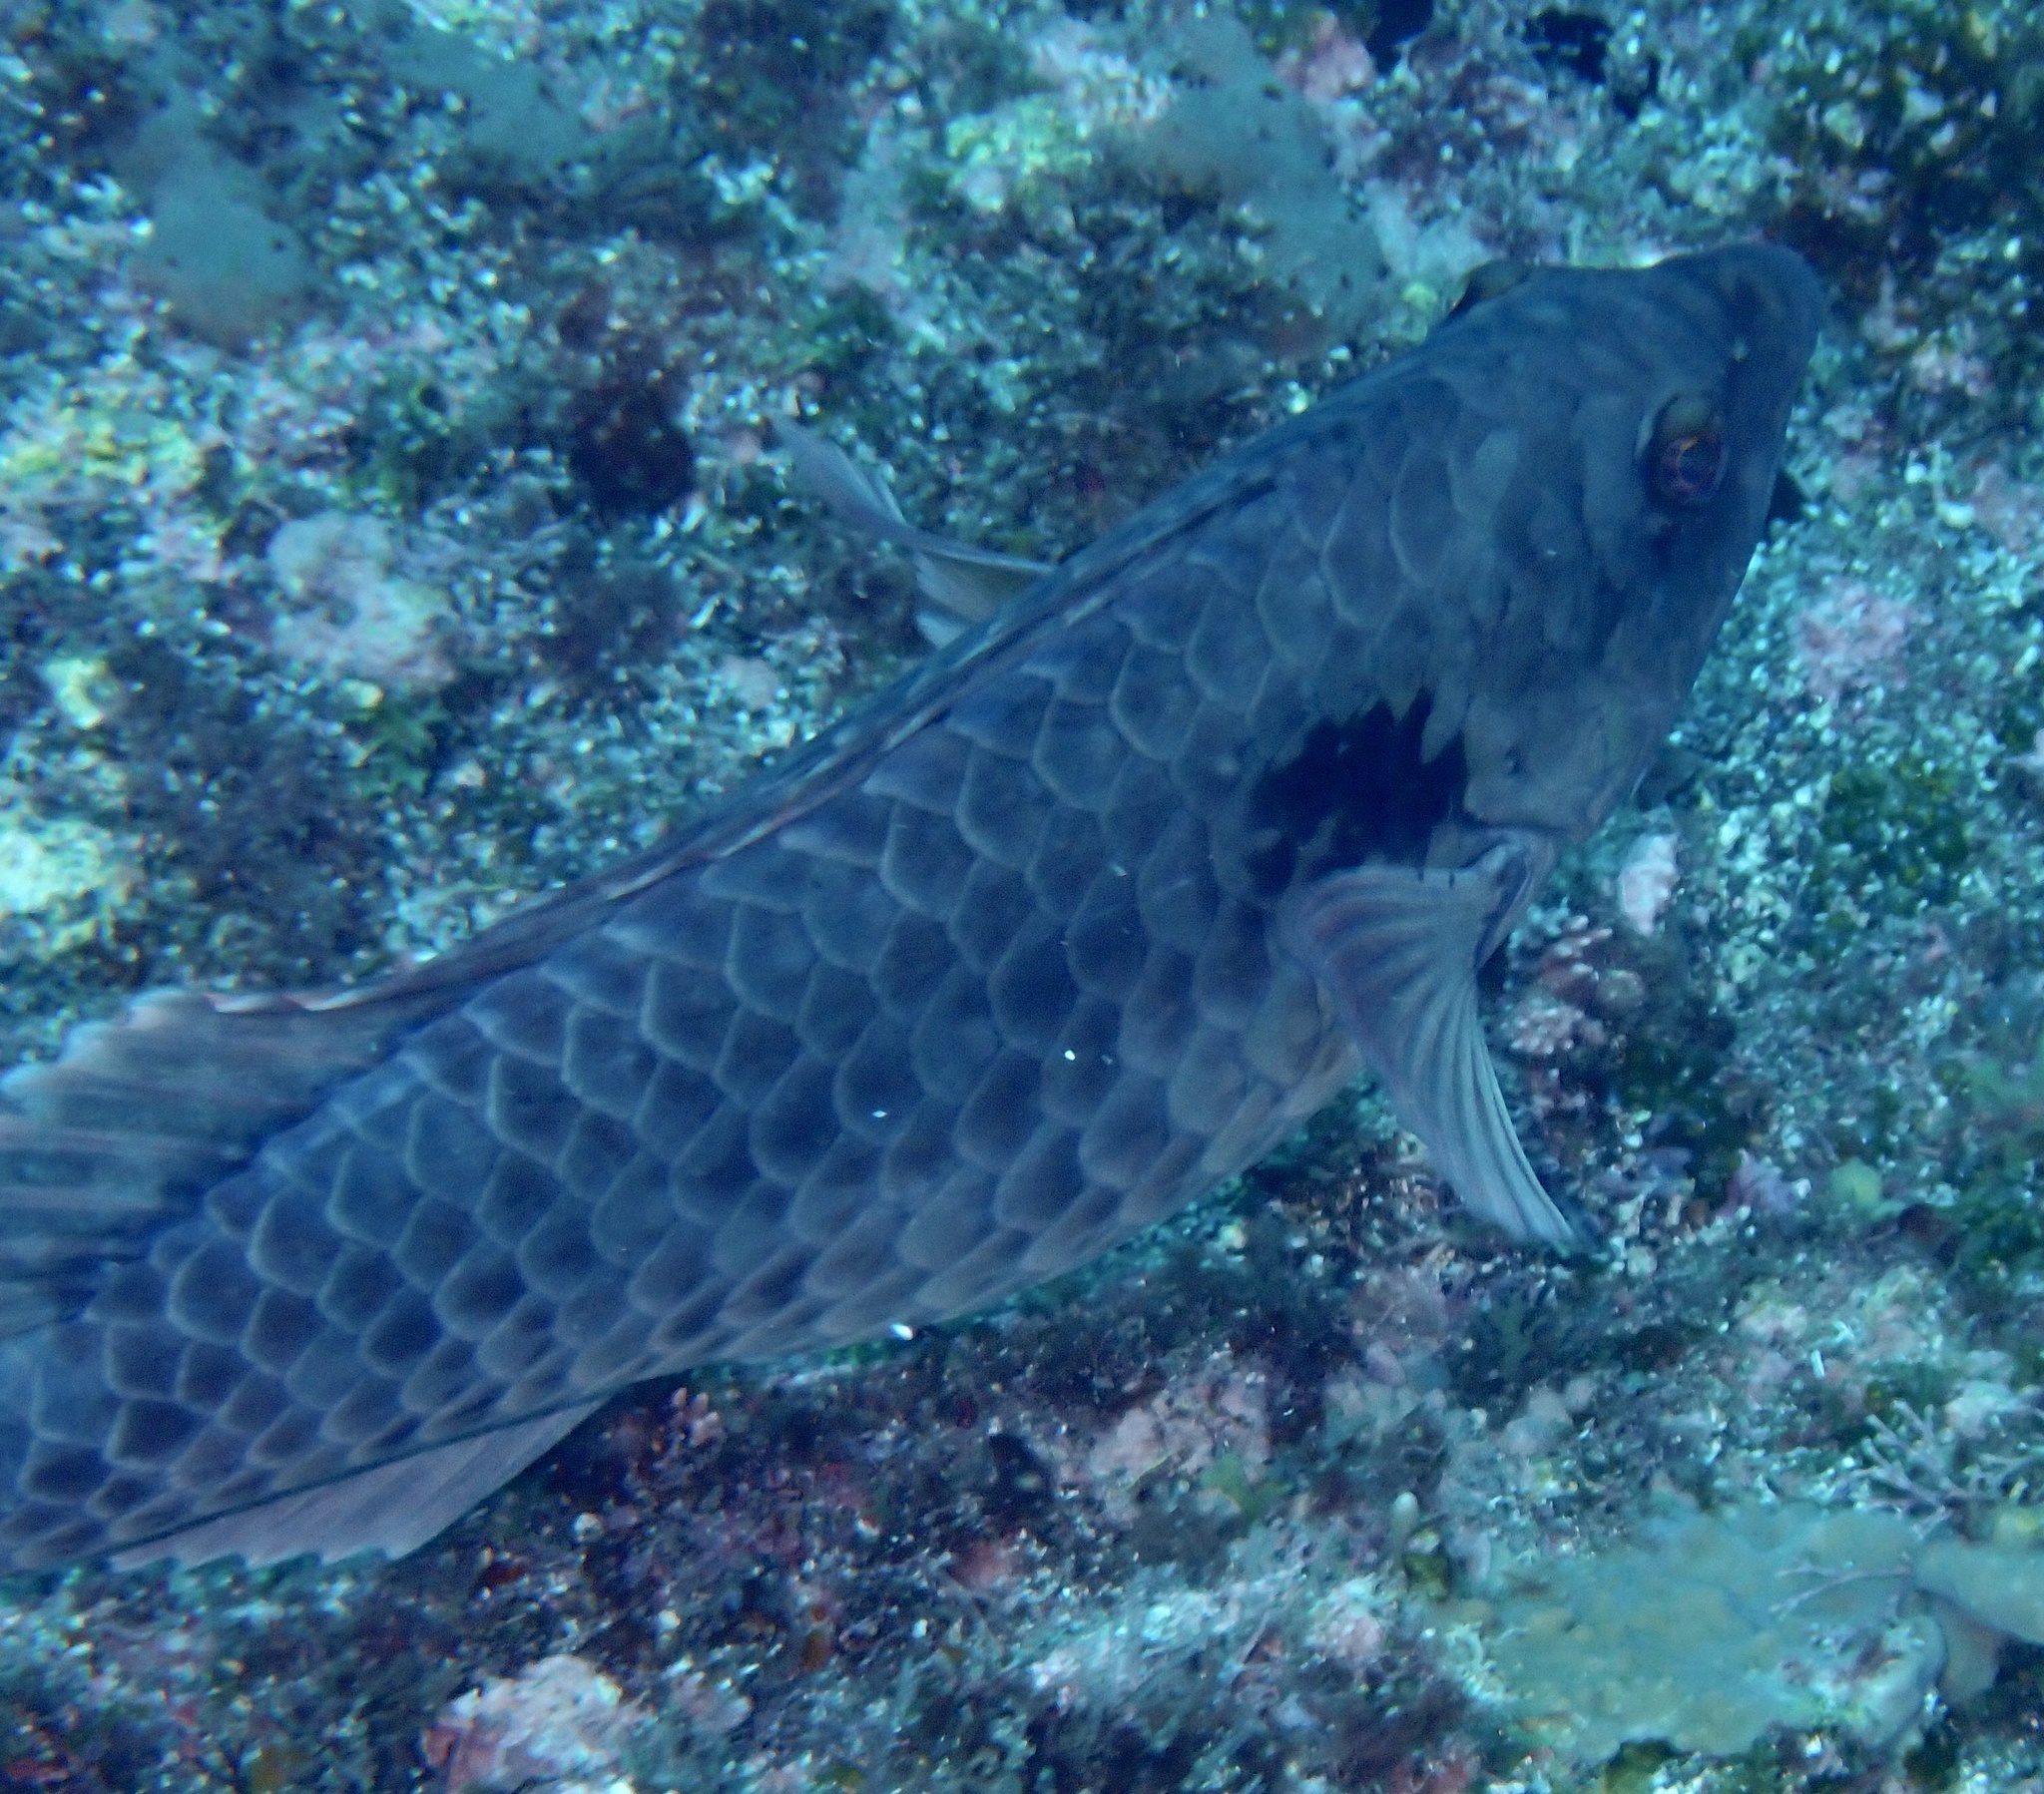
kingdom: Animalia
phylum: Chordata
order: Perciformes
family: Scaridae
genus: Sparisoma
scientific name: Sparisoma cretense
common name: Parrotfish
